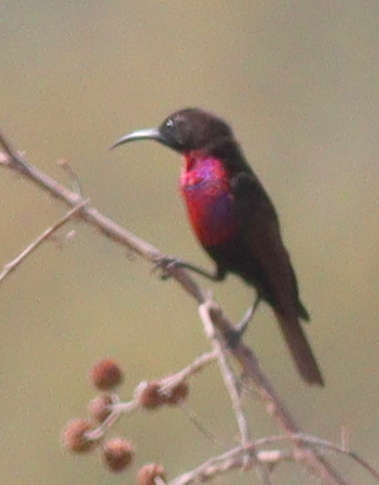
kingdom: Animalia
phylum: Chordata
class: Aves
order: Passeriformes
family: Nectariniidae
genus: Chalcomitra
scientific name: Chalcomitra senegalensis
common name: Scarlet-chested sunbird
